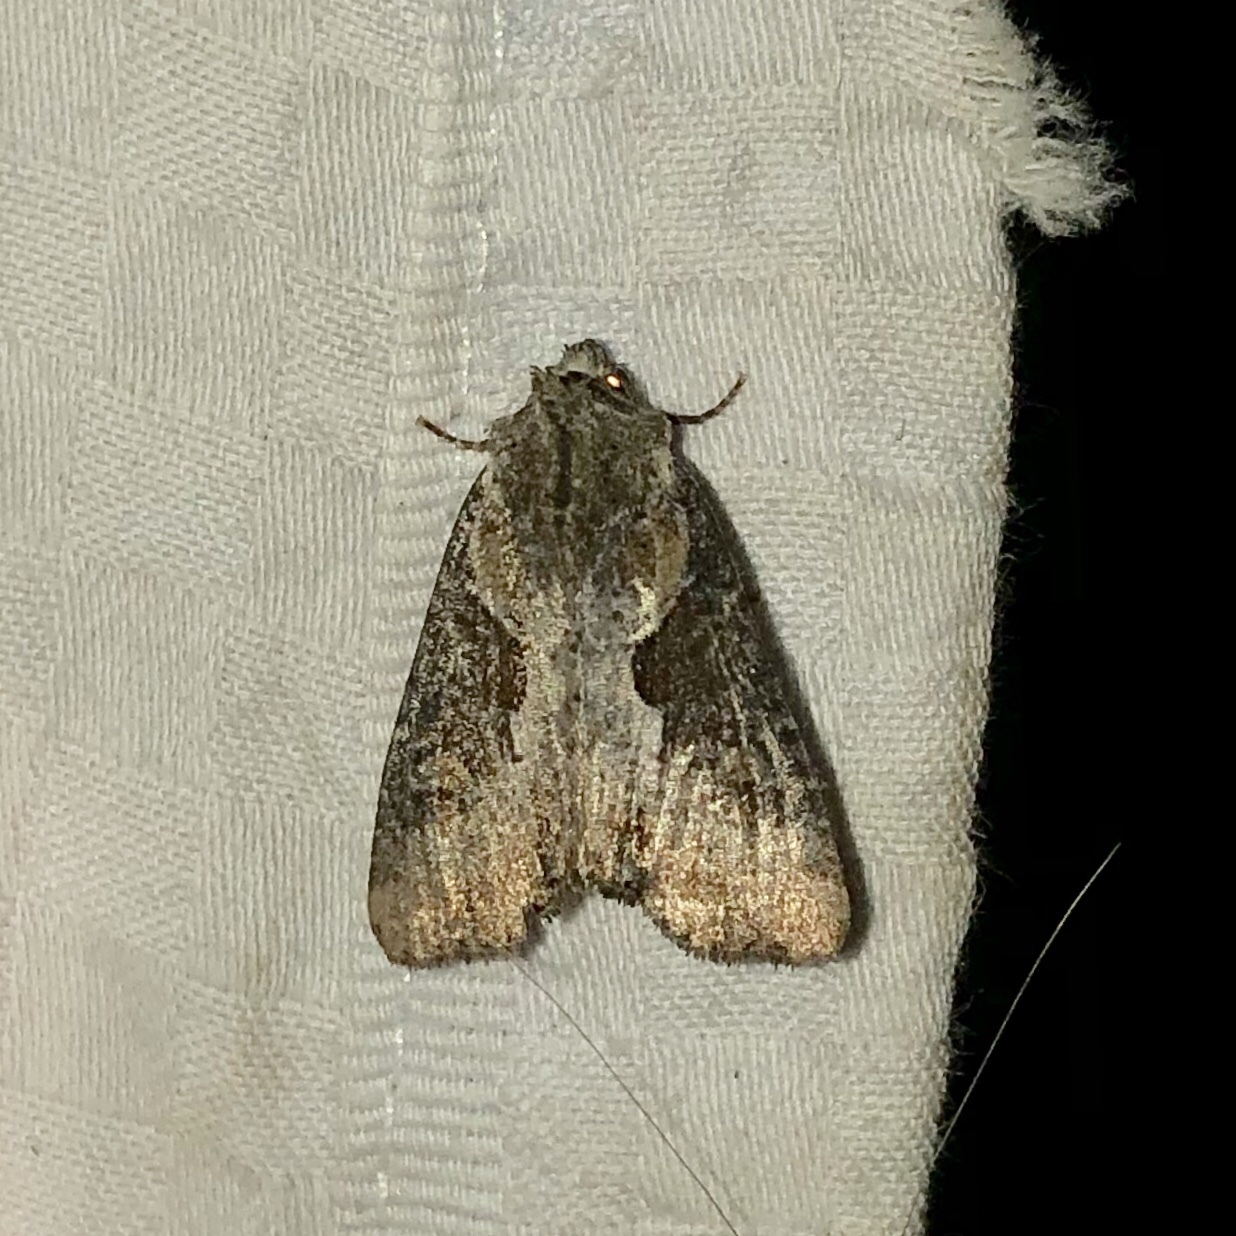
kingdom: Animalia
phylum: Arthropoda
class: Insecta
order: Lepidoptera
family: Noctuidae
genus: Lateroligia
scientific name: Lateroligia ophiogramma
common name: Double lobed
